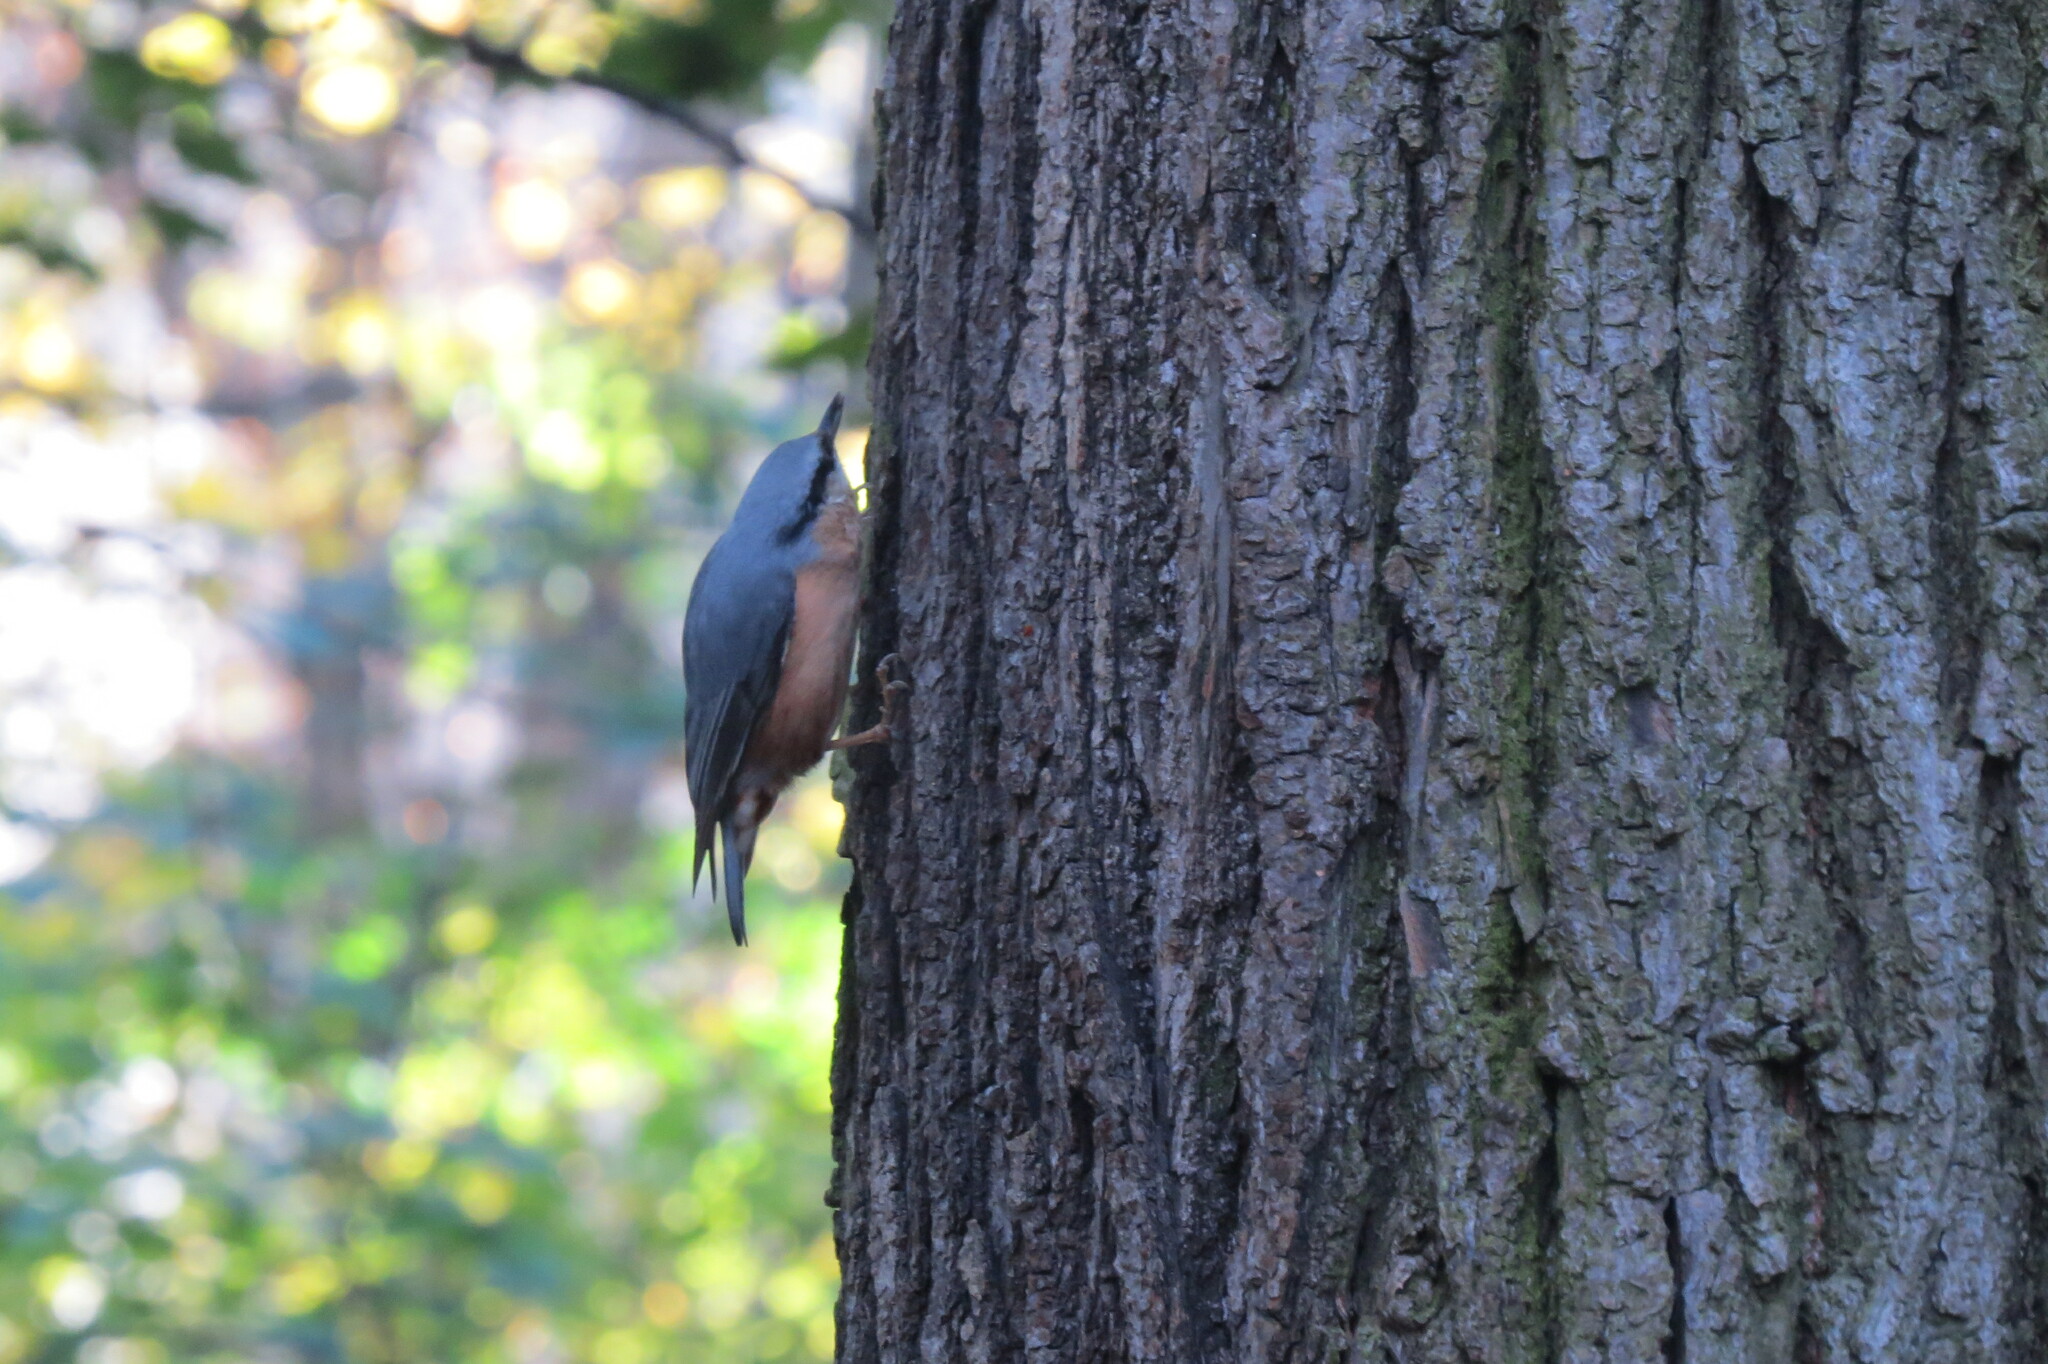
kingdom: Animalia
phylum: Chordata
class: Aves
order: Passeriformes
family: Sittidae
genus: Sitta
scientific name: Sitta europaea
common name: Eurasian nuthatch
